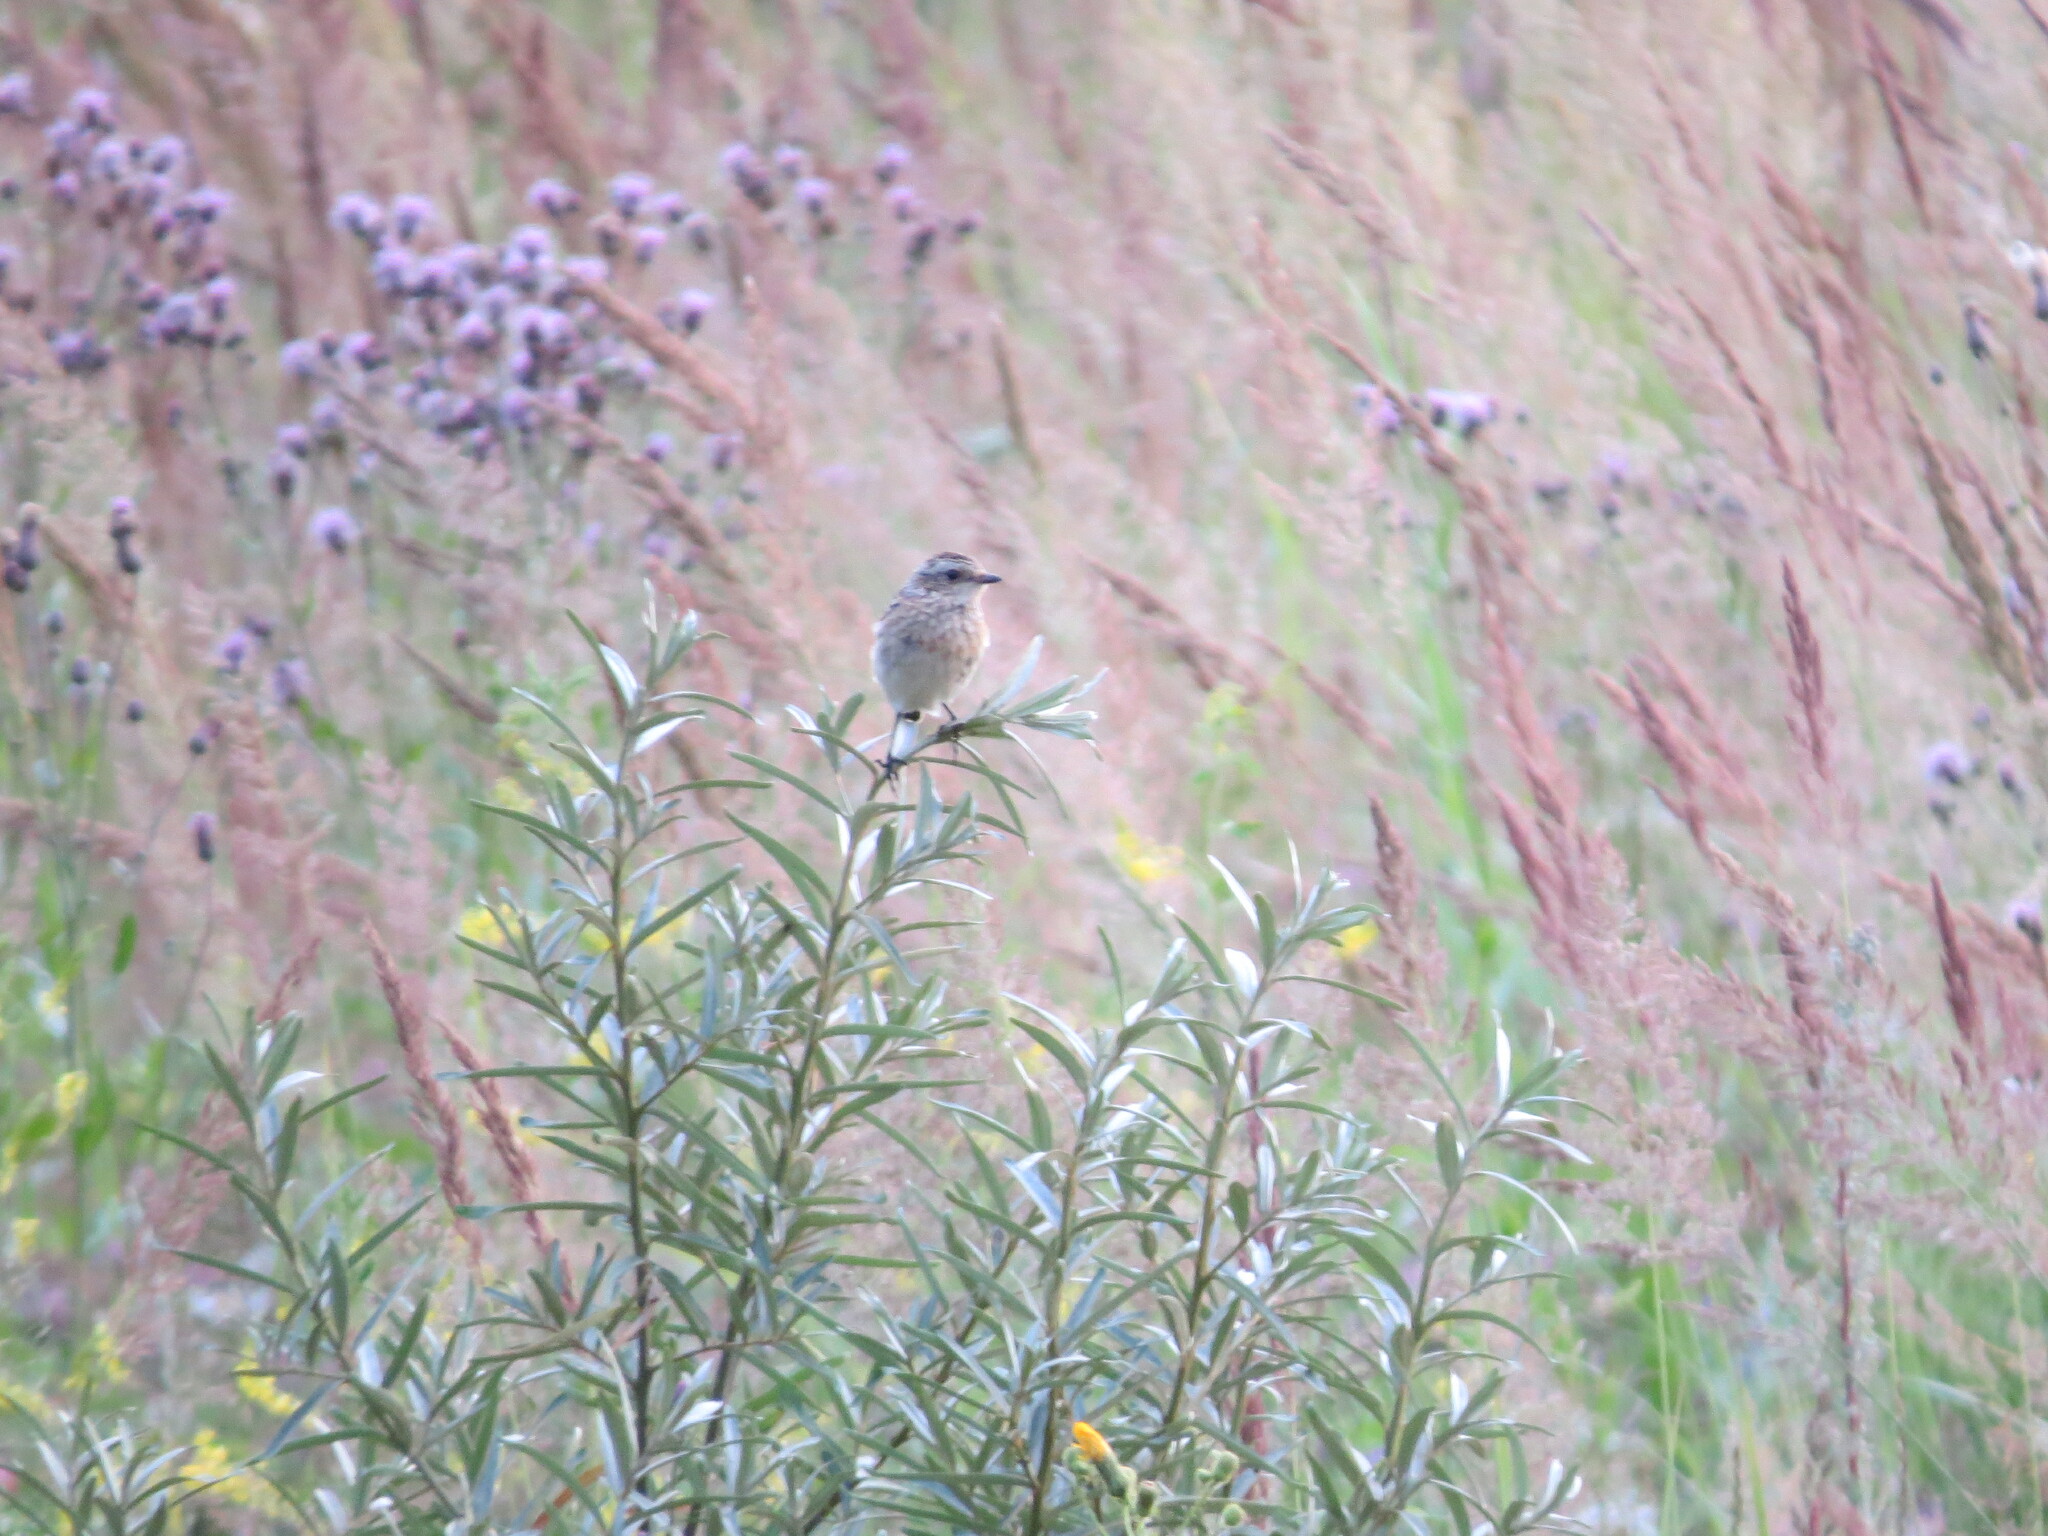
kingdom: Animalia
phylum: Chordata
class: Aves
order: Passeriformes
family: Muscicapidae
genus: Saxicola
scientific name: Saxicola rubetra
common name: Whinchat
